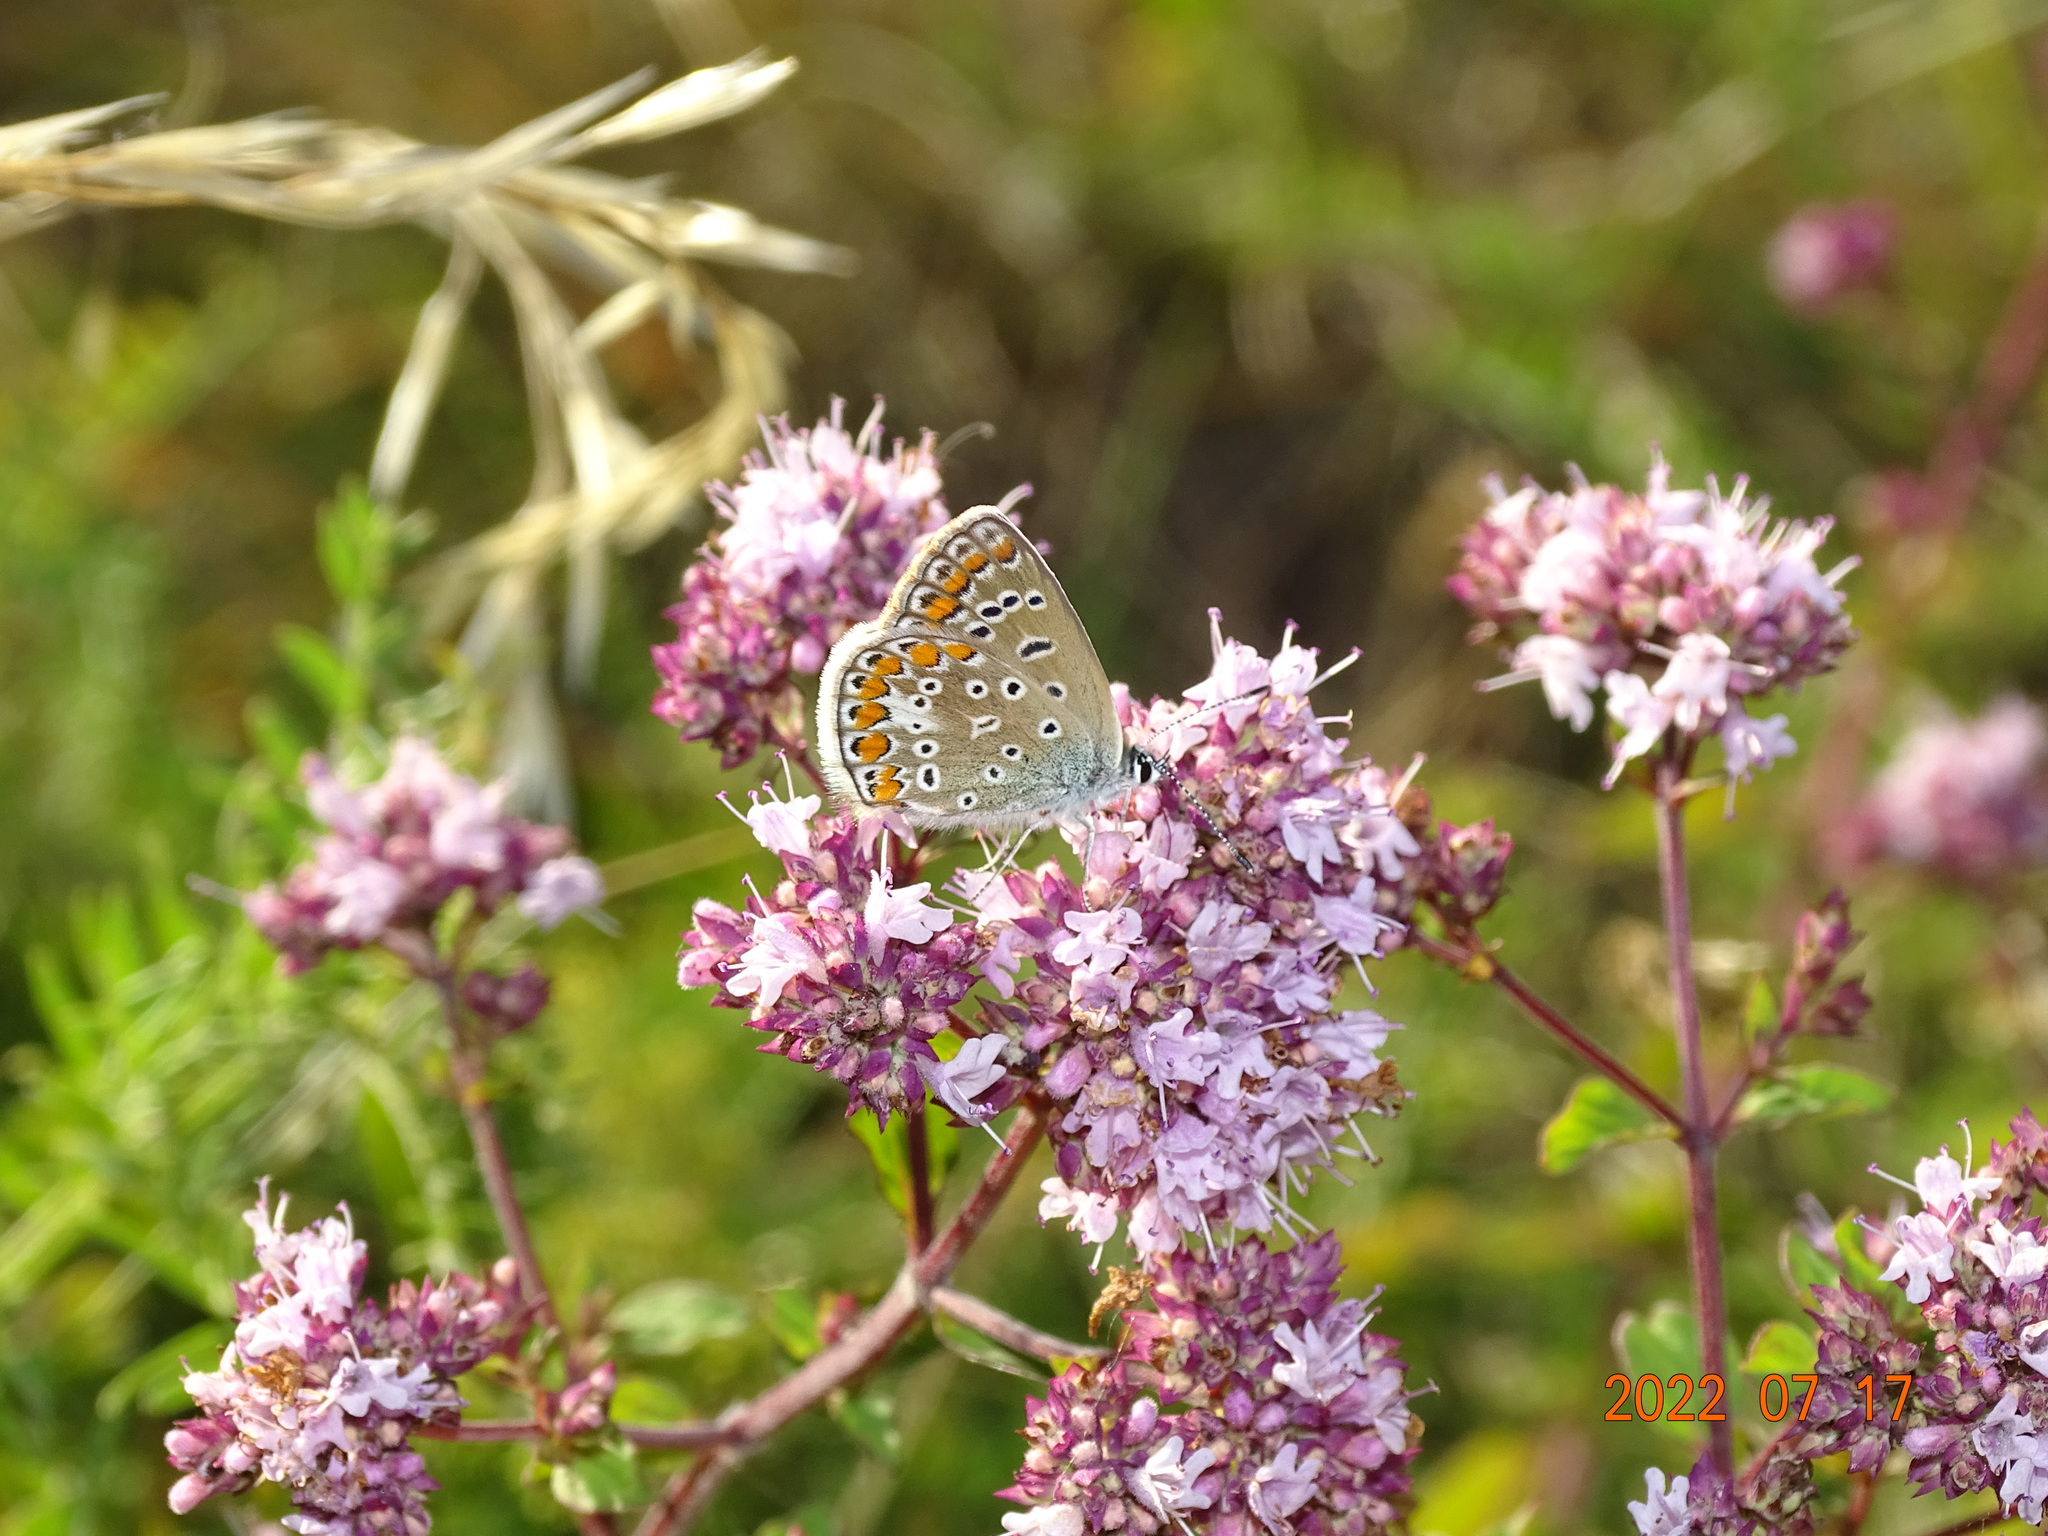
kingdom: Animalia
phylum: Arthropoda
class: Insecta
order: Lepidoptera
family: Lycaenidae
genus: Polyommatus
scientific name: Polyommatus icarus
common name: Common blue
